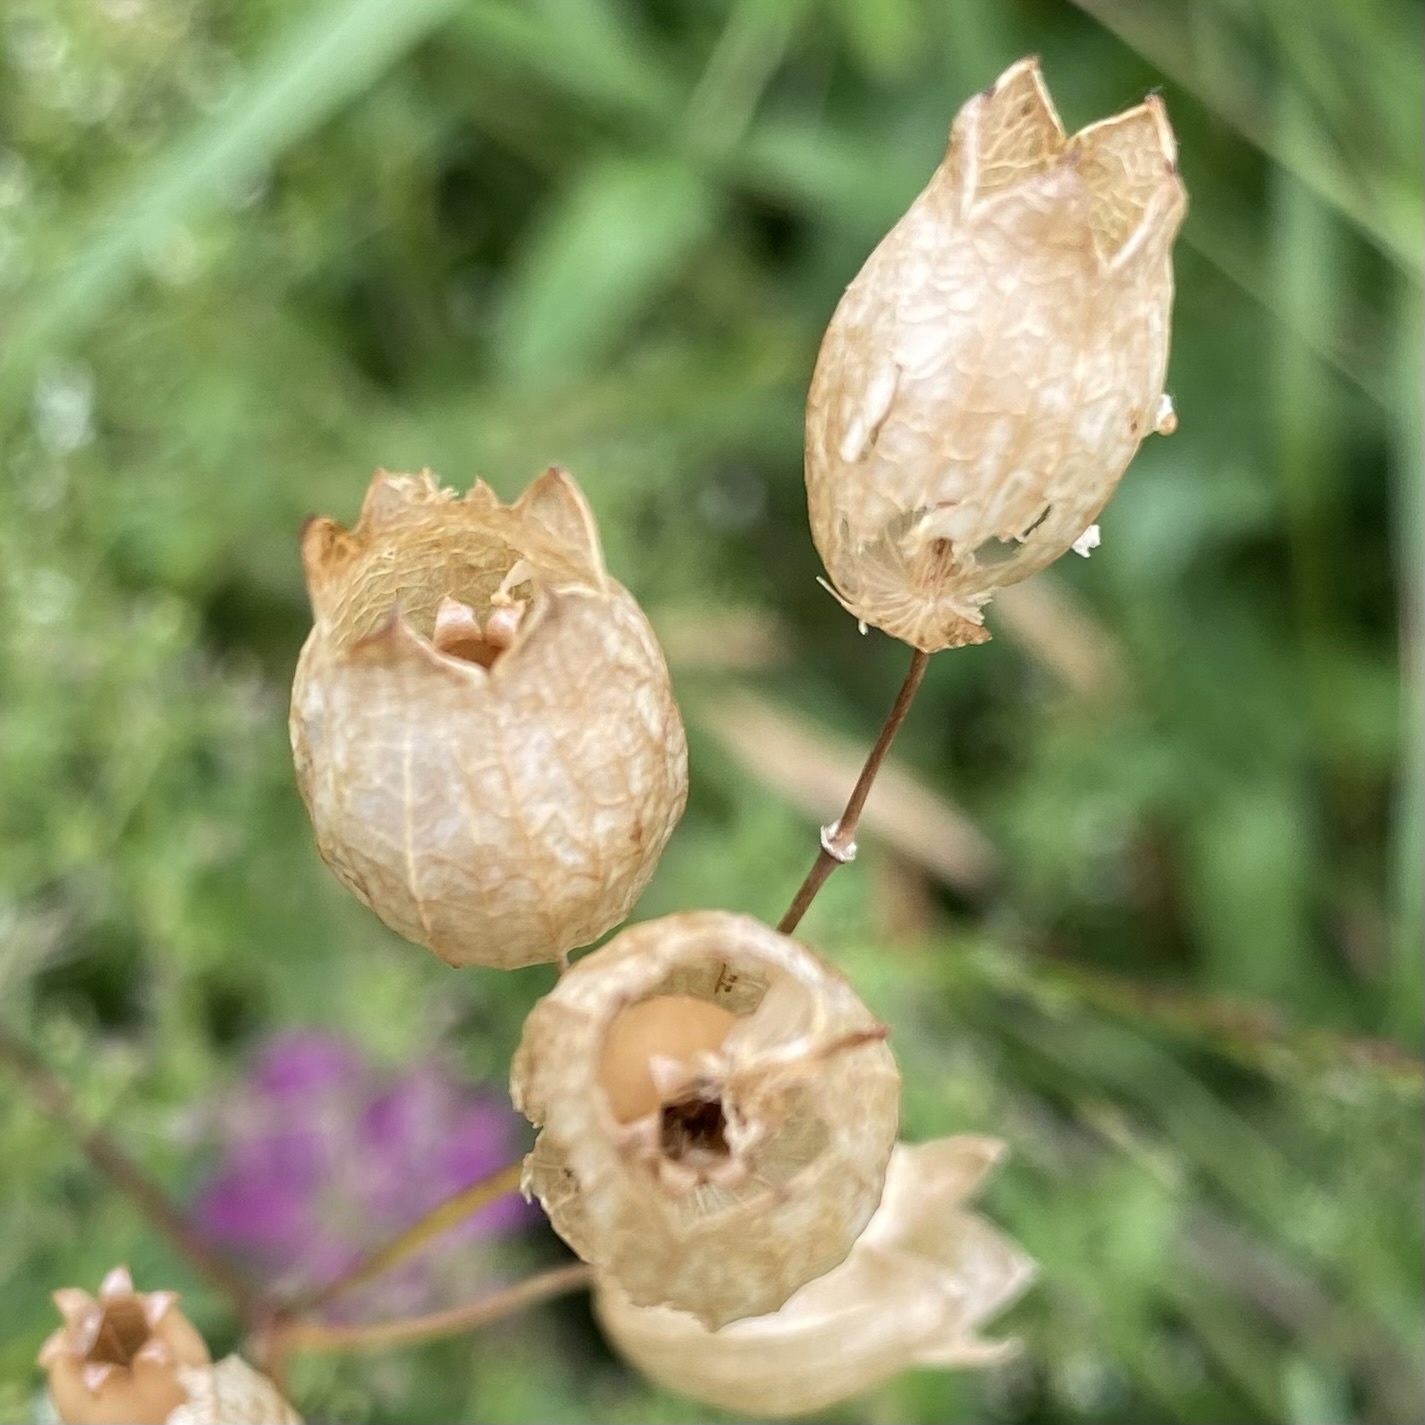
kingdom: Plantae
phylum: Tracheophyta
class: Magnoliopsida
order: Caryophyllales
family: Caryophyllaceae
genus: Silene
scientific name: Silene vulgaris
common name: Bladder campion
